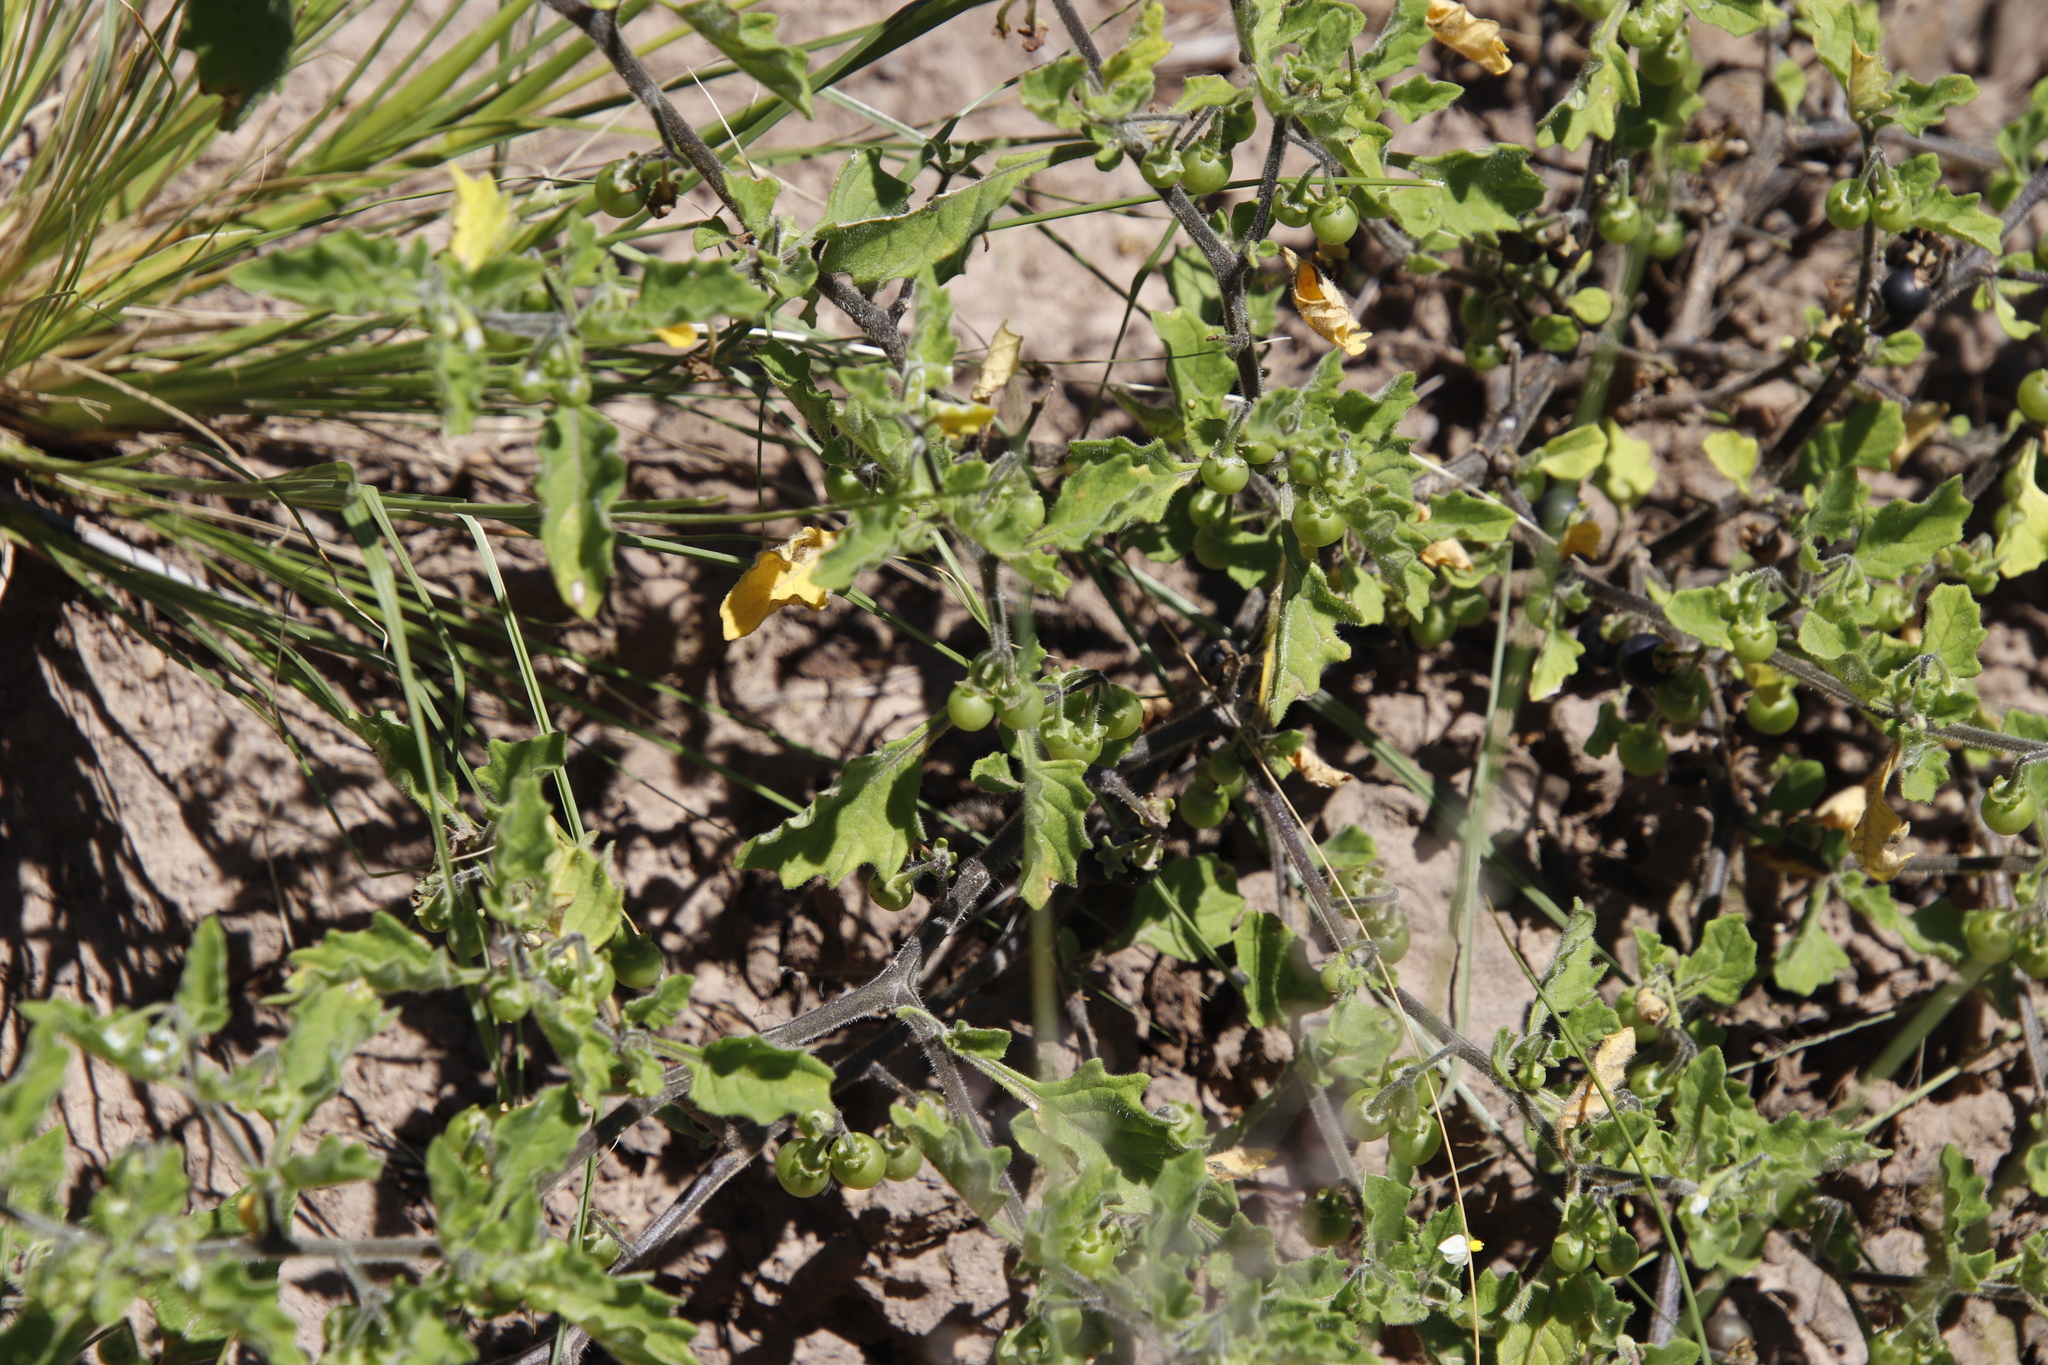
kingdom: Plantae
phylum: Tracheophyta
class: Magnoliopsida
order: Solanales
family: Solanaceae
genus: Solanum
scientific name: Solanum retroflexum
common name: Wonderberry
